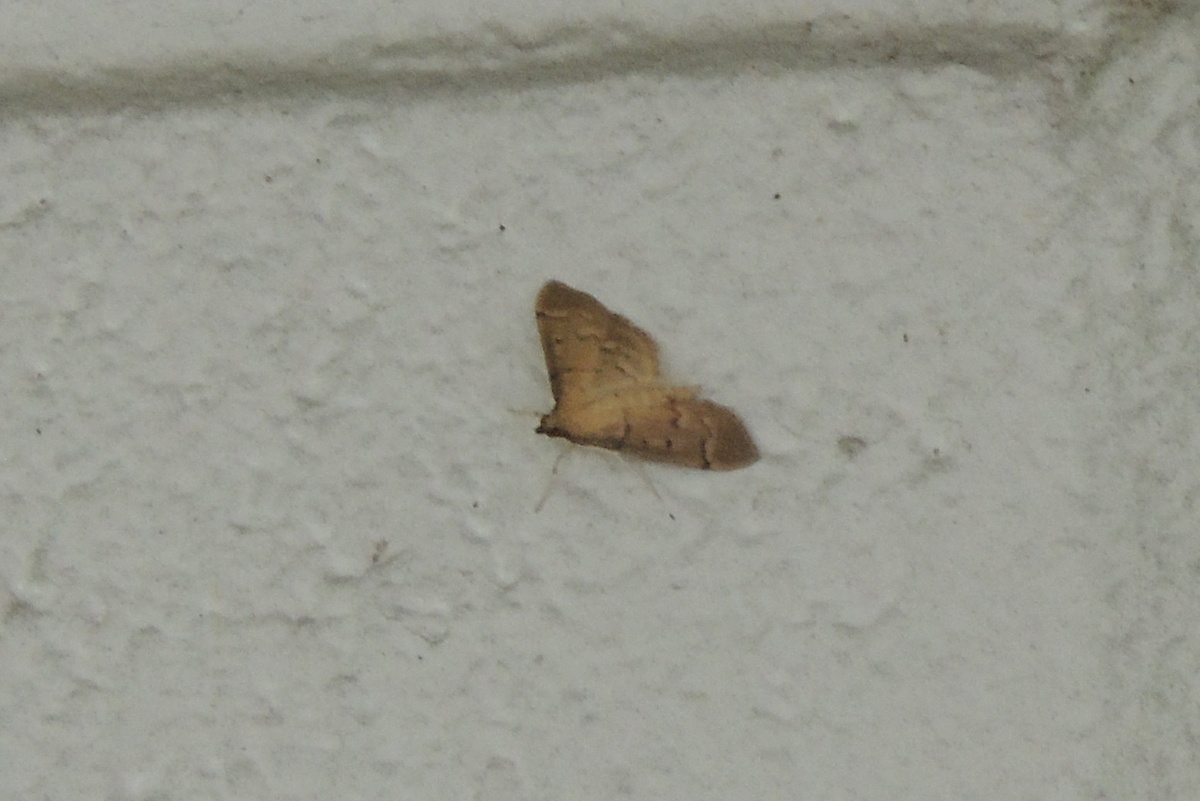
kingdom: Animalia
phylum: Arthropoda
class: Insecta
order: Lepidoptera
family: Crambidae
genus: Herpetogramma
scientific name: Herpetogramma bipunctalis
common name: Southern beet webworm
